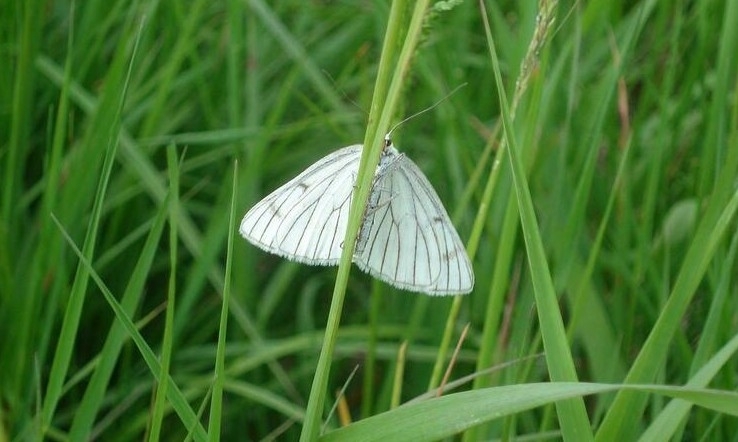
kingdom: Animalia
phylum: Arthropoda
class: Insecta
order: Lepidoptera
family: Geometridae
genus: Siona
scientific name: Siona lineata
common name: Black-veined moth
